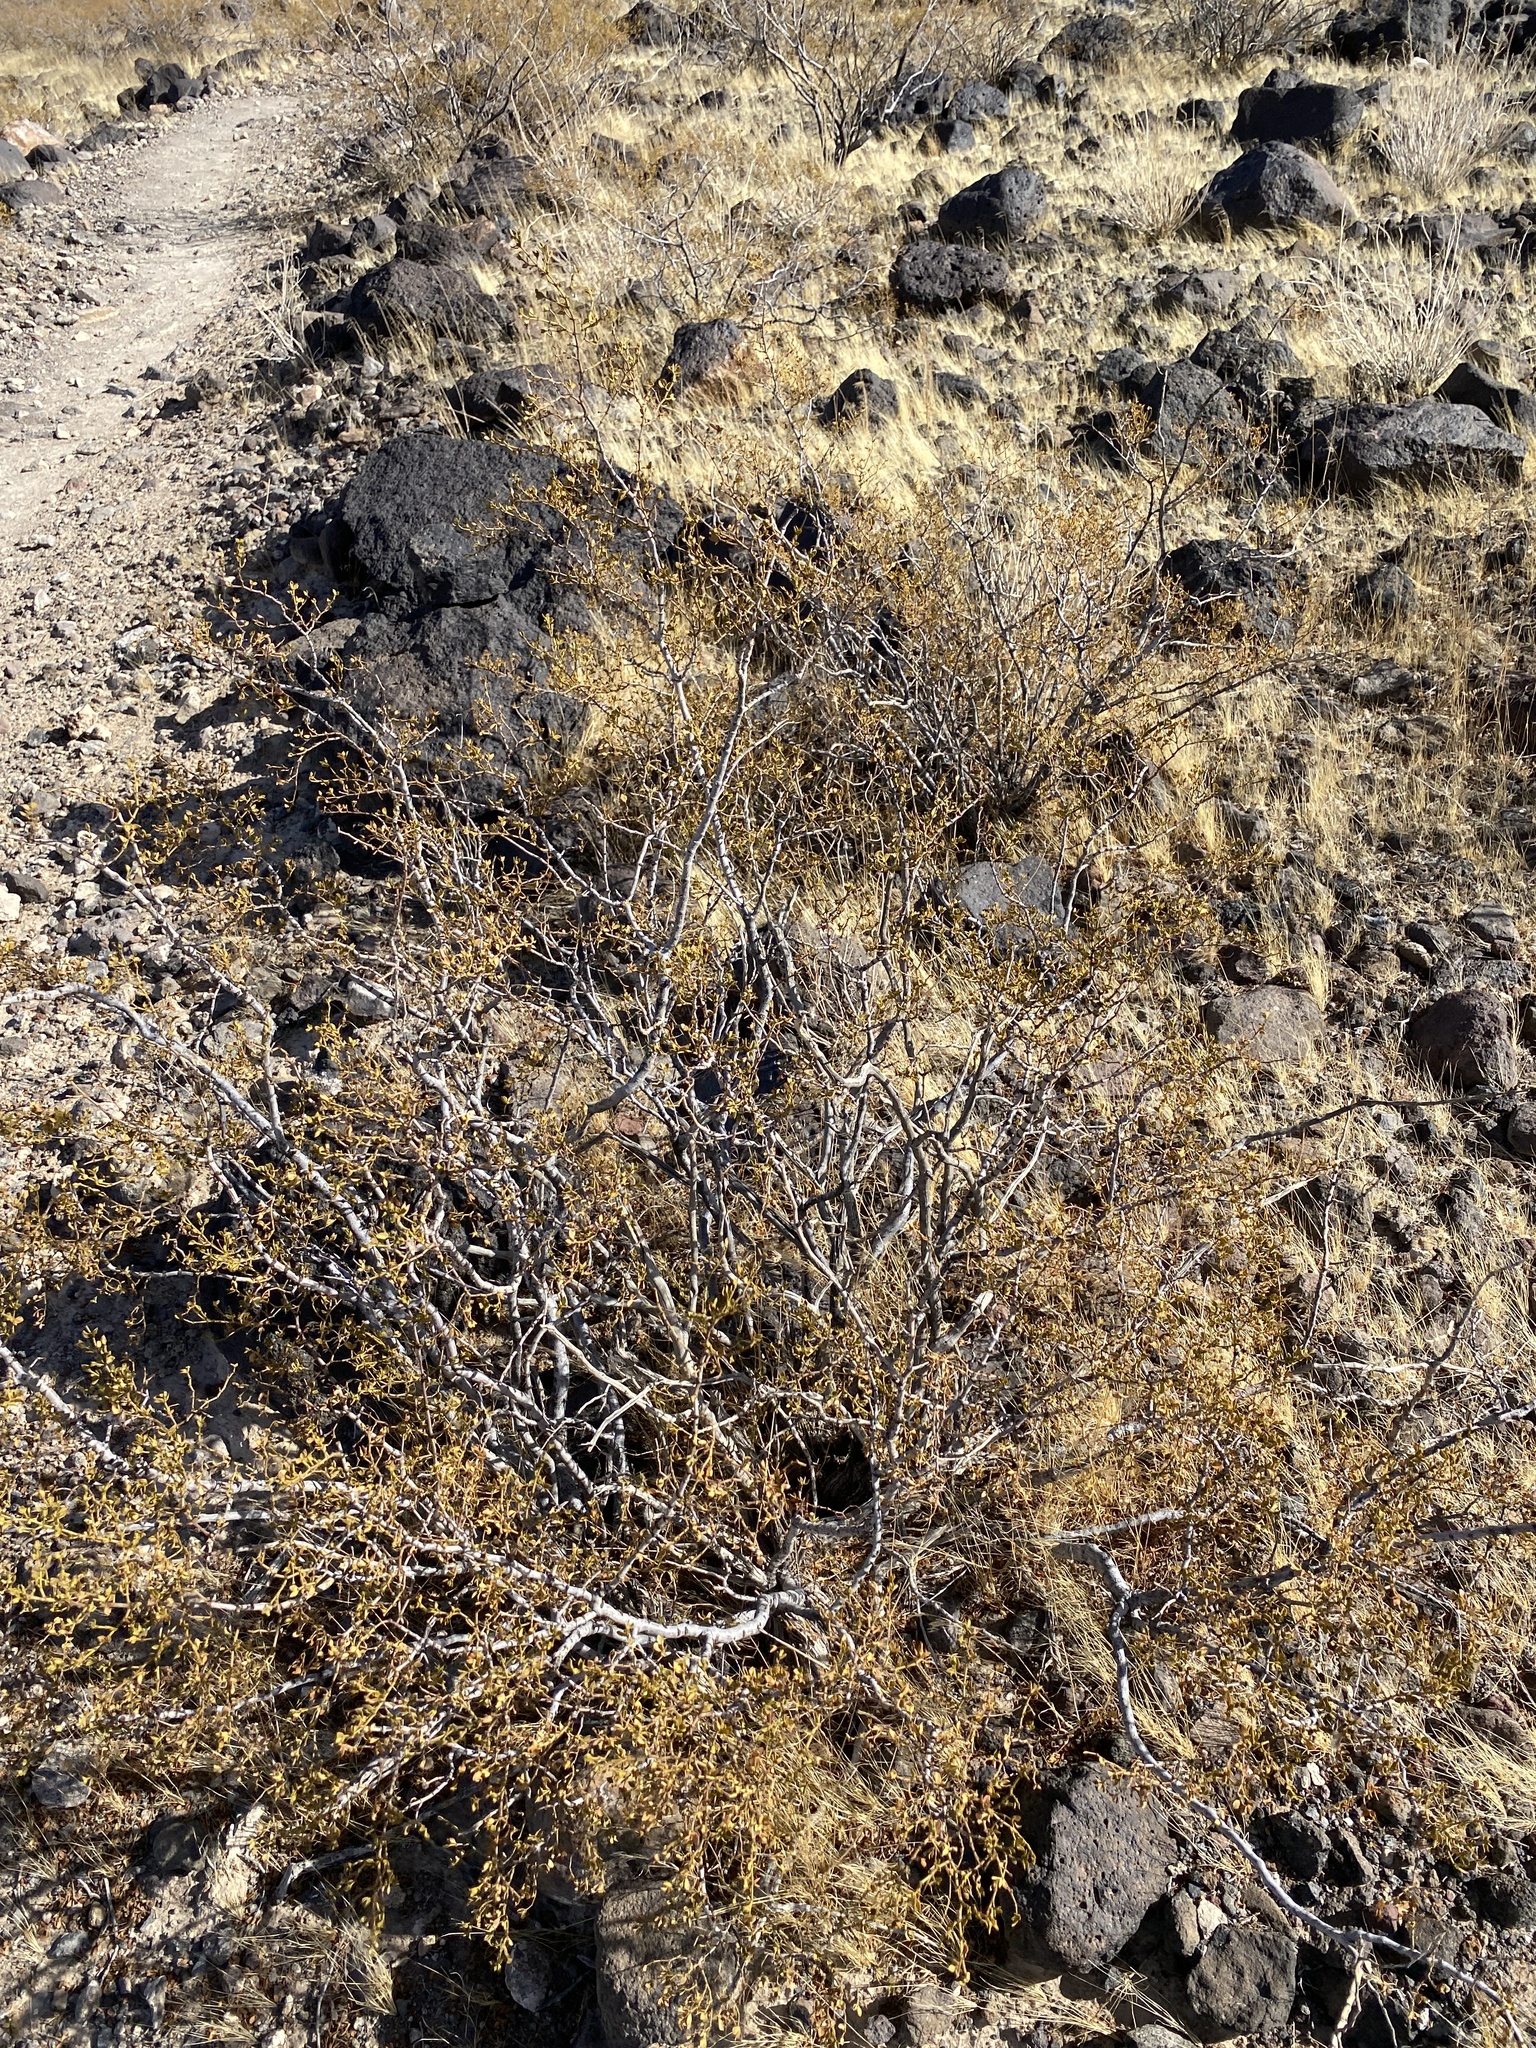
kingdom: Plantae
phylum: Tracheophyta
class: Magnoliopsida
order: Zygophyllales
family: Zygophyllaceae
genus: Larrea
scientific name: Larrea tridentata
